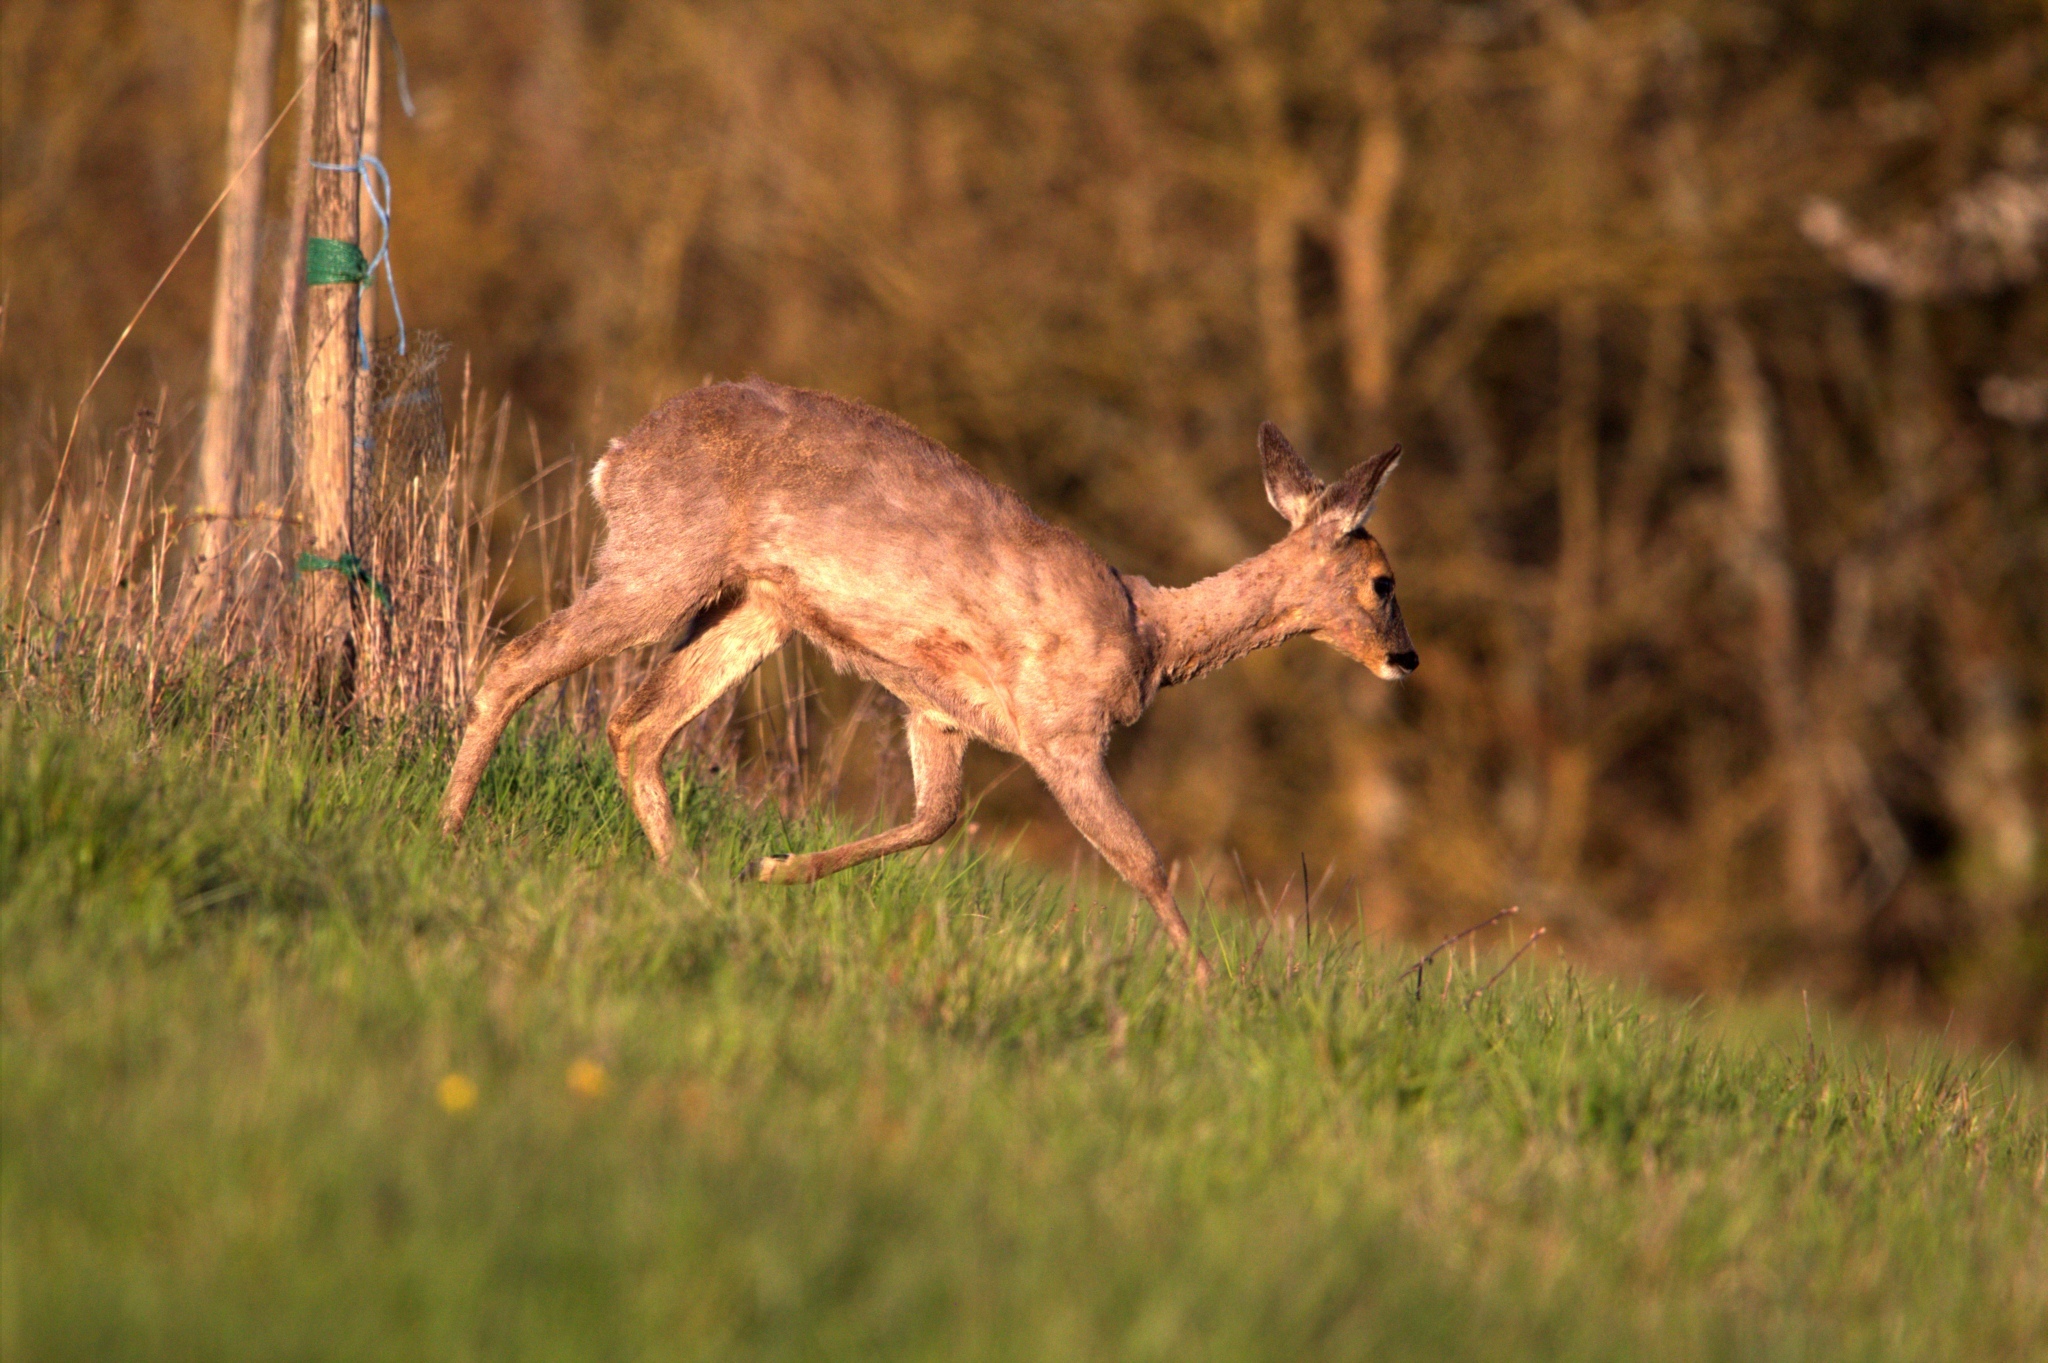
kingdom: Animalia
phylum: Chordata
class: Mammalia
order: Artiodactyla
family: Cervidae
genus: Capreolus
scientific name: Capreolus capreolus
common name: Western roe deer
